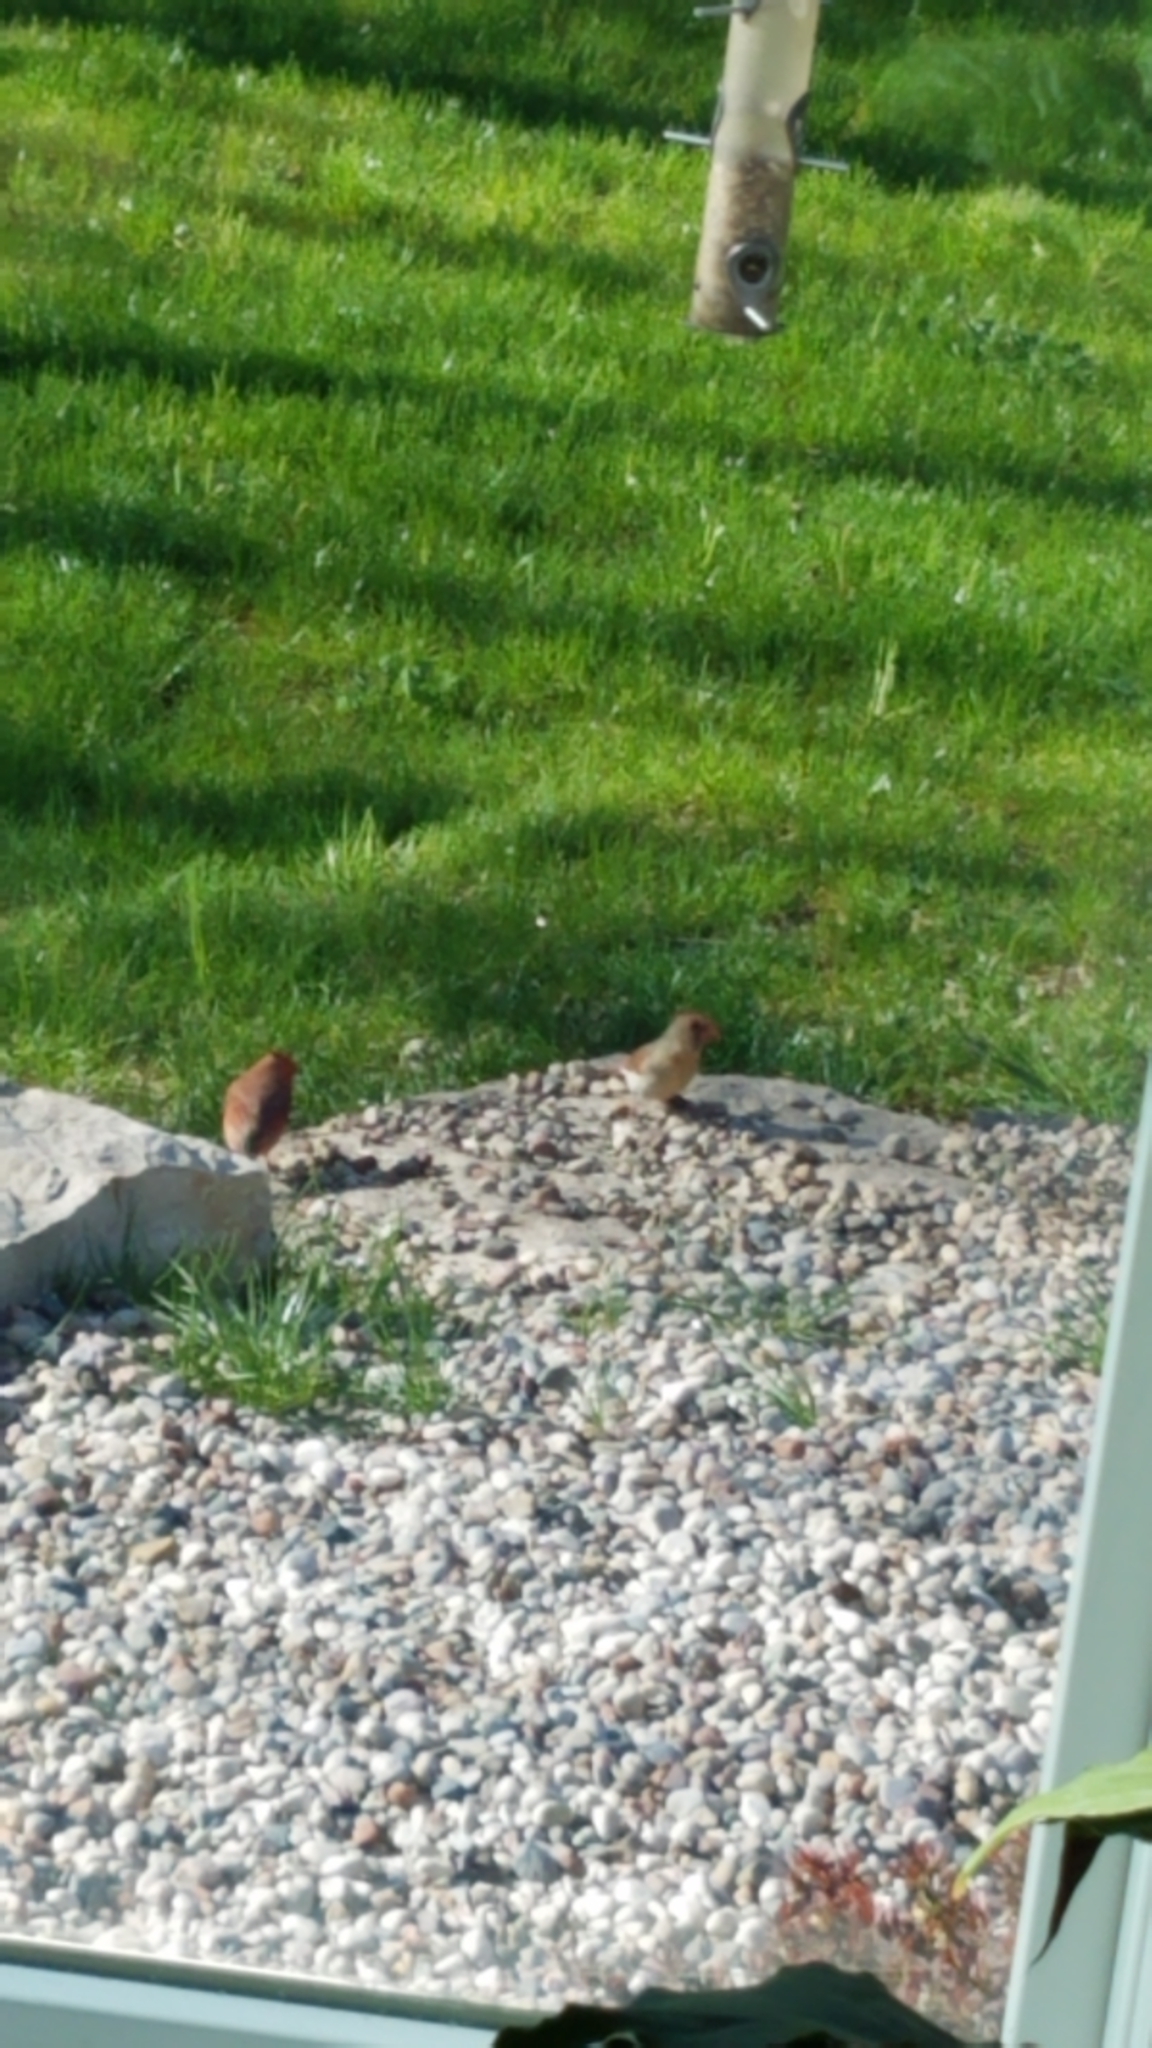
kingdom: Animalia
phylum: Chordata
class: Aves
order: Passeriformes
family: Cardinalidae
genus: Cardinalis
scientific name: Cardinalis cardinalis
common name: Northern cardinal
